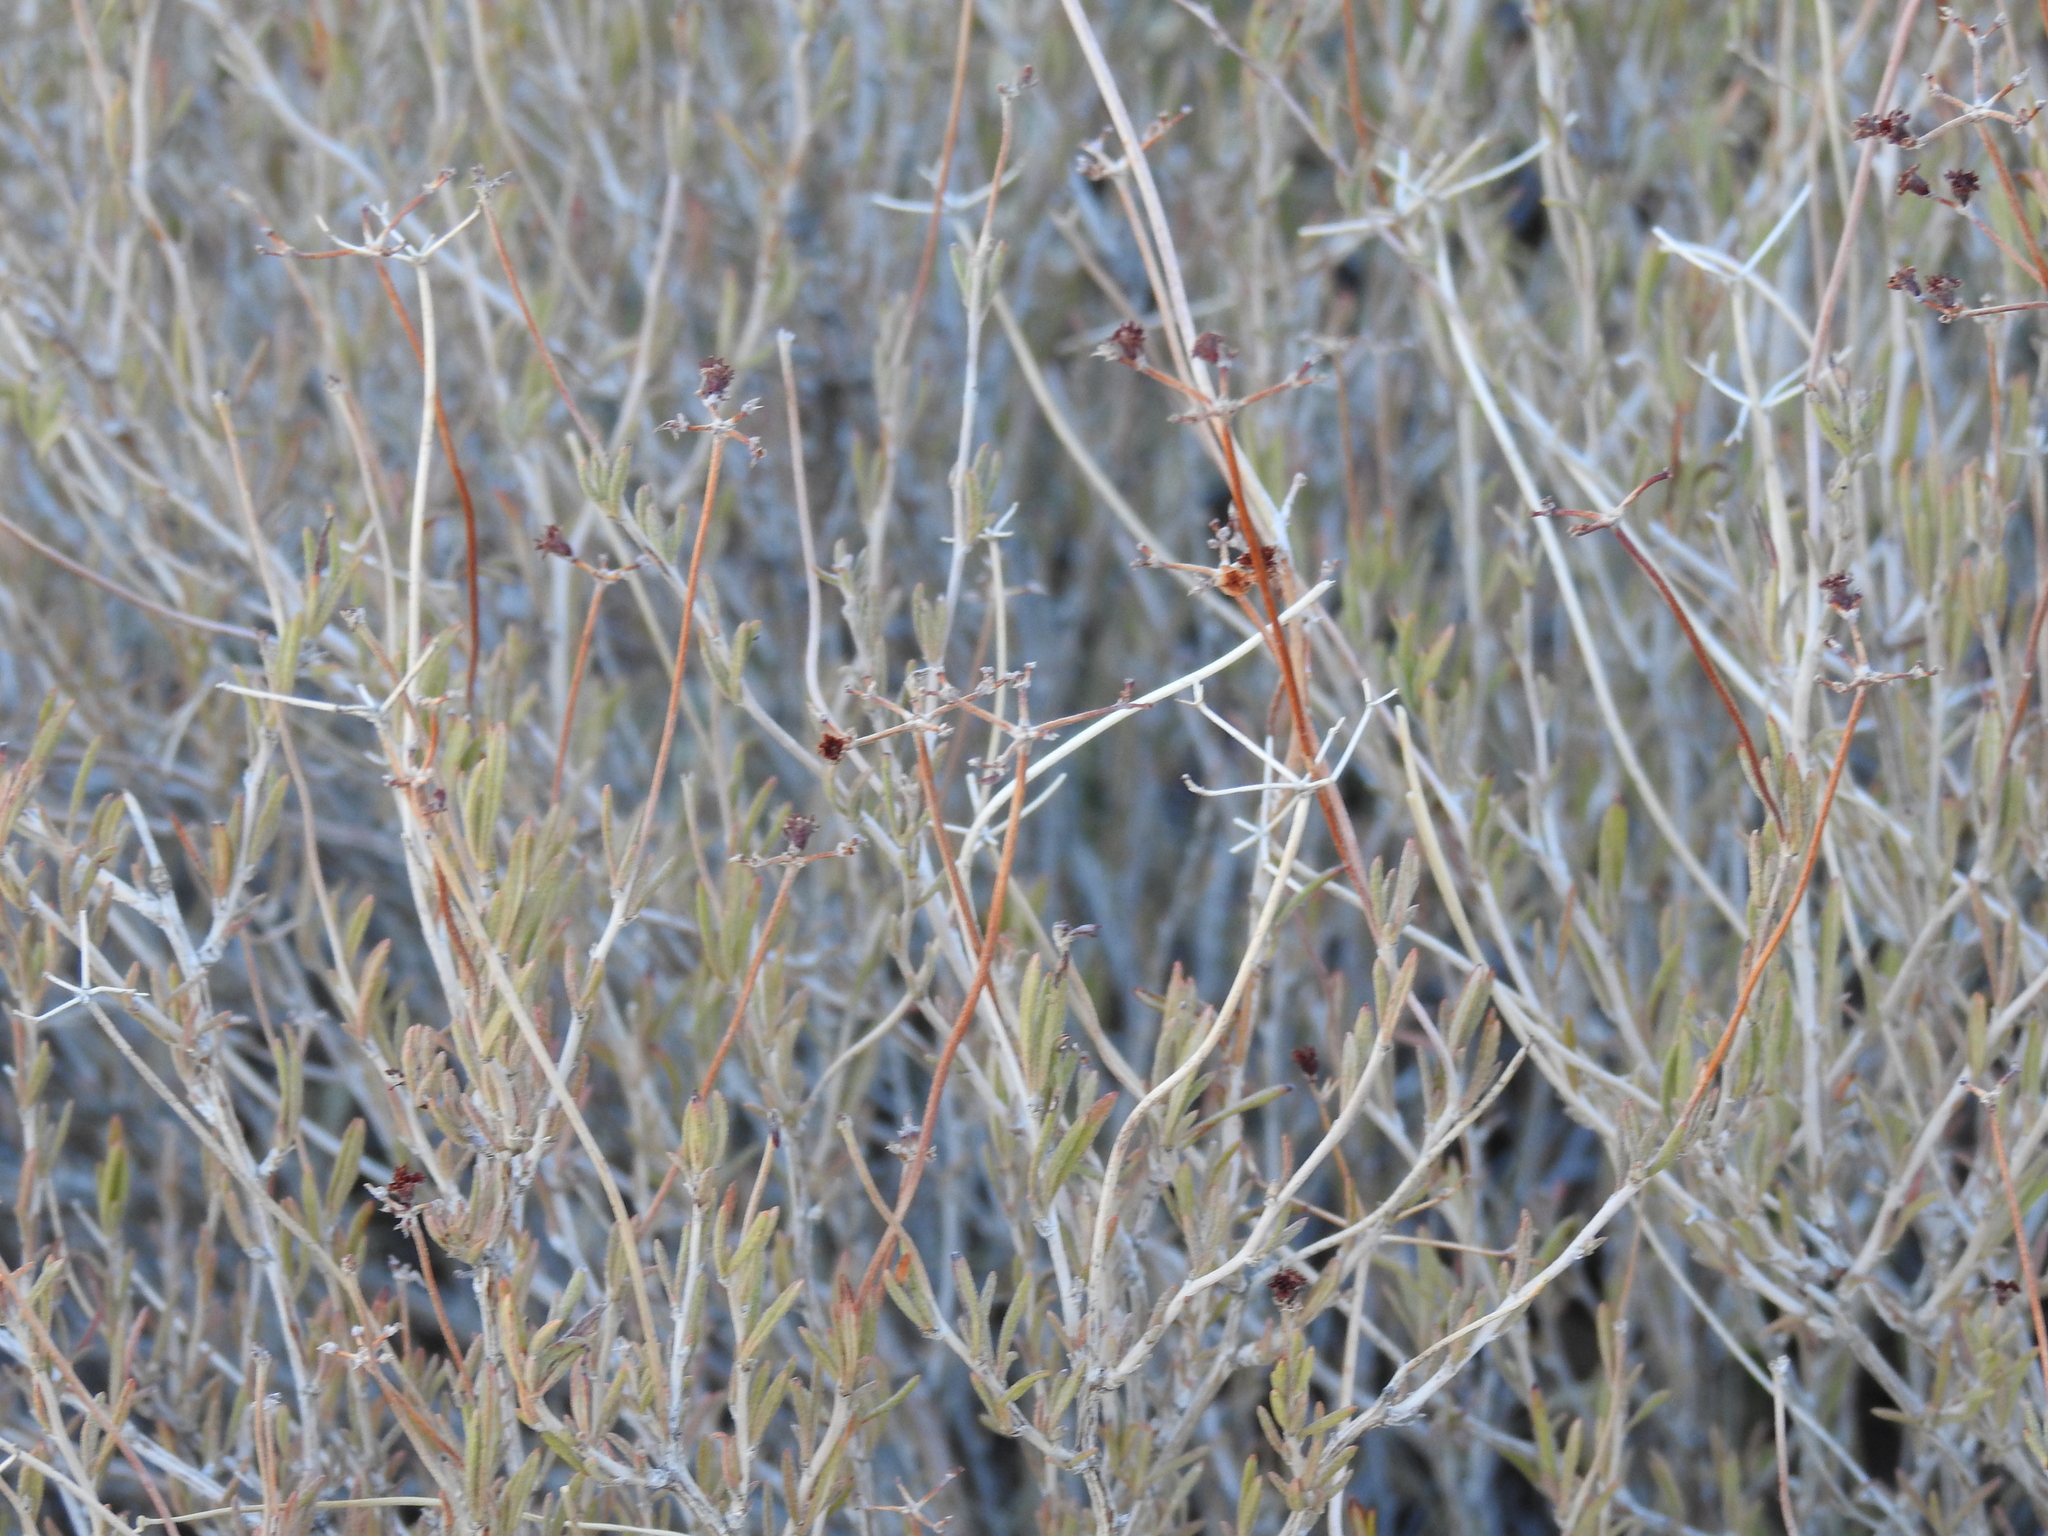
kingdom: Plantae
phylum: Tracheophyta
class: Magnoliopsida
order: Caryophyllales
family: Polygonaceae
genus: Eriogonum
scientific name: Eriogonum fasciculatum
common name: California wild buckwheat
